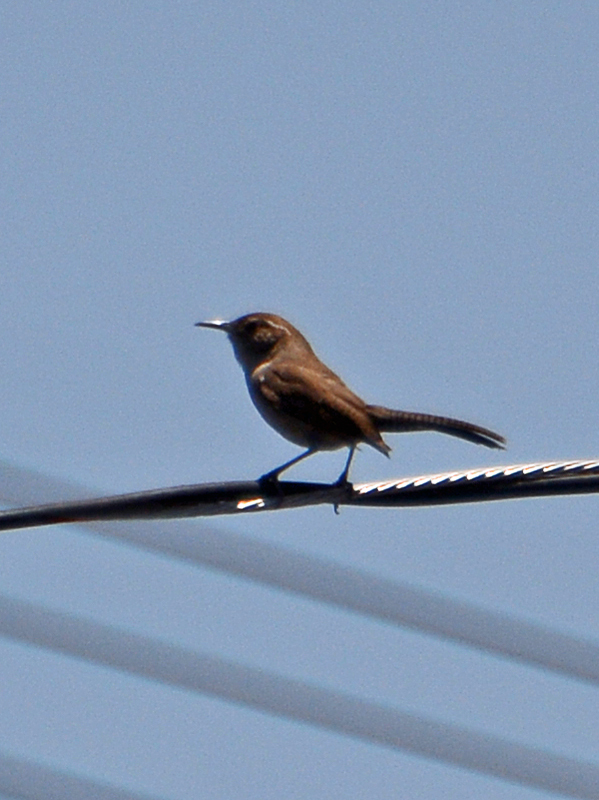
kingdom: Animalia
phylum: Chordata
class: Aves
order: Passeriformes
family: Troglodytidae
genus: Thryomanes
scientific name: Thryomanes bewickii
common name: Bewick's wren
